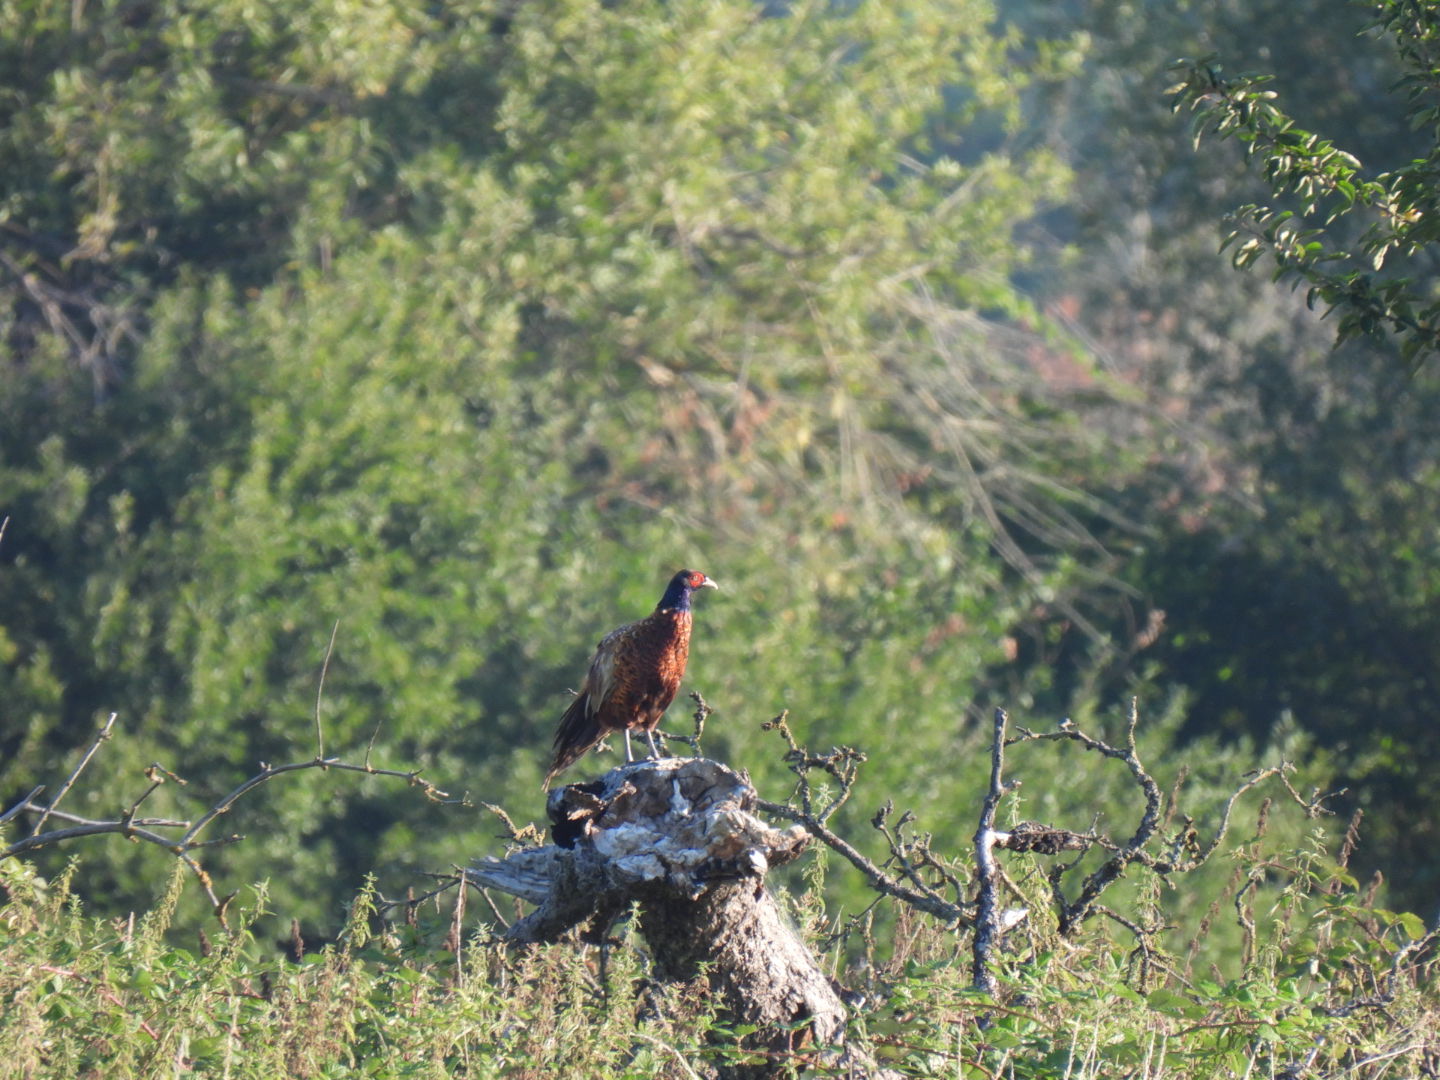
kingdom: Animalia
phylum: Chordata
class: Aves
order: Galliformes
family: Phasianidae
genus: Phasianus
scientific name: Phasianus colchicus
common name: Common pheasant
